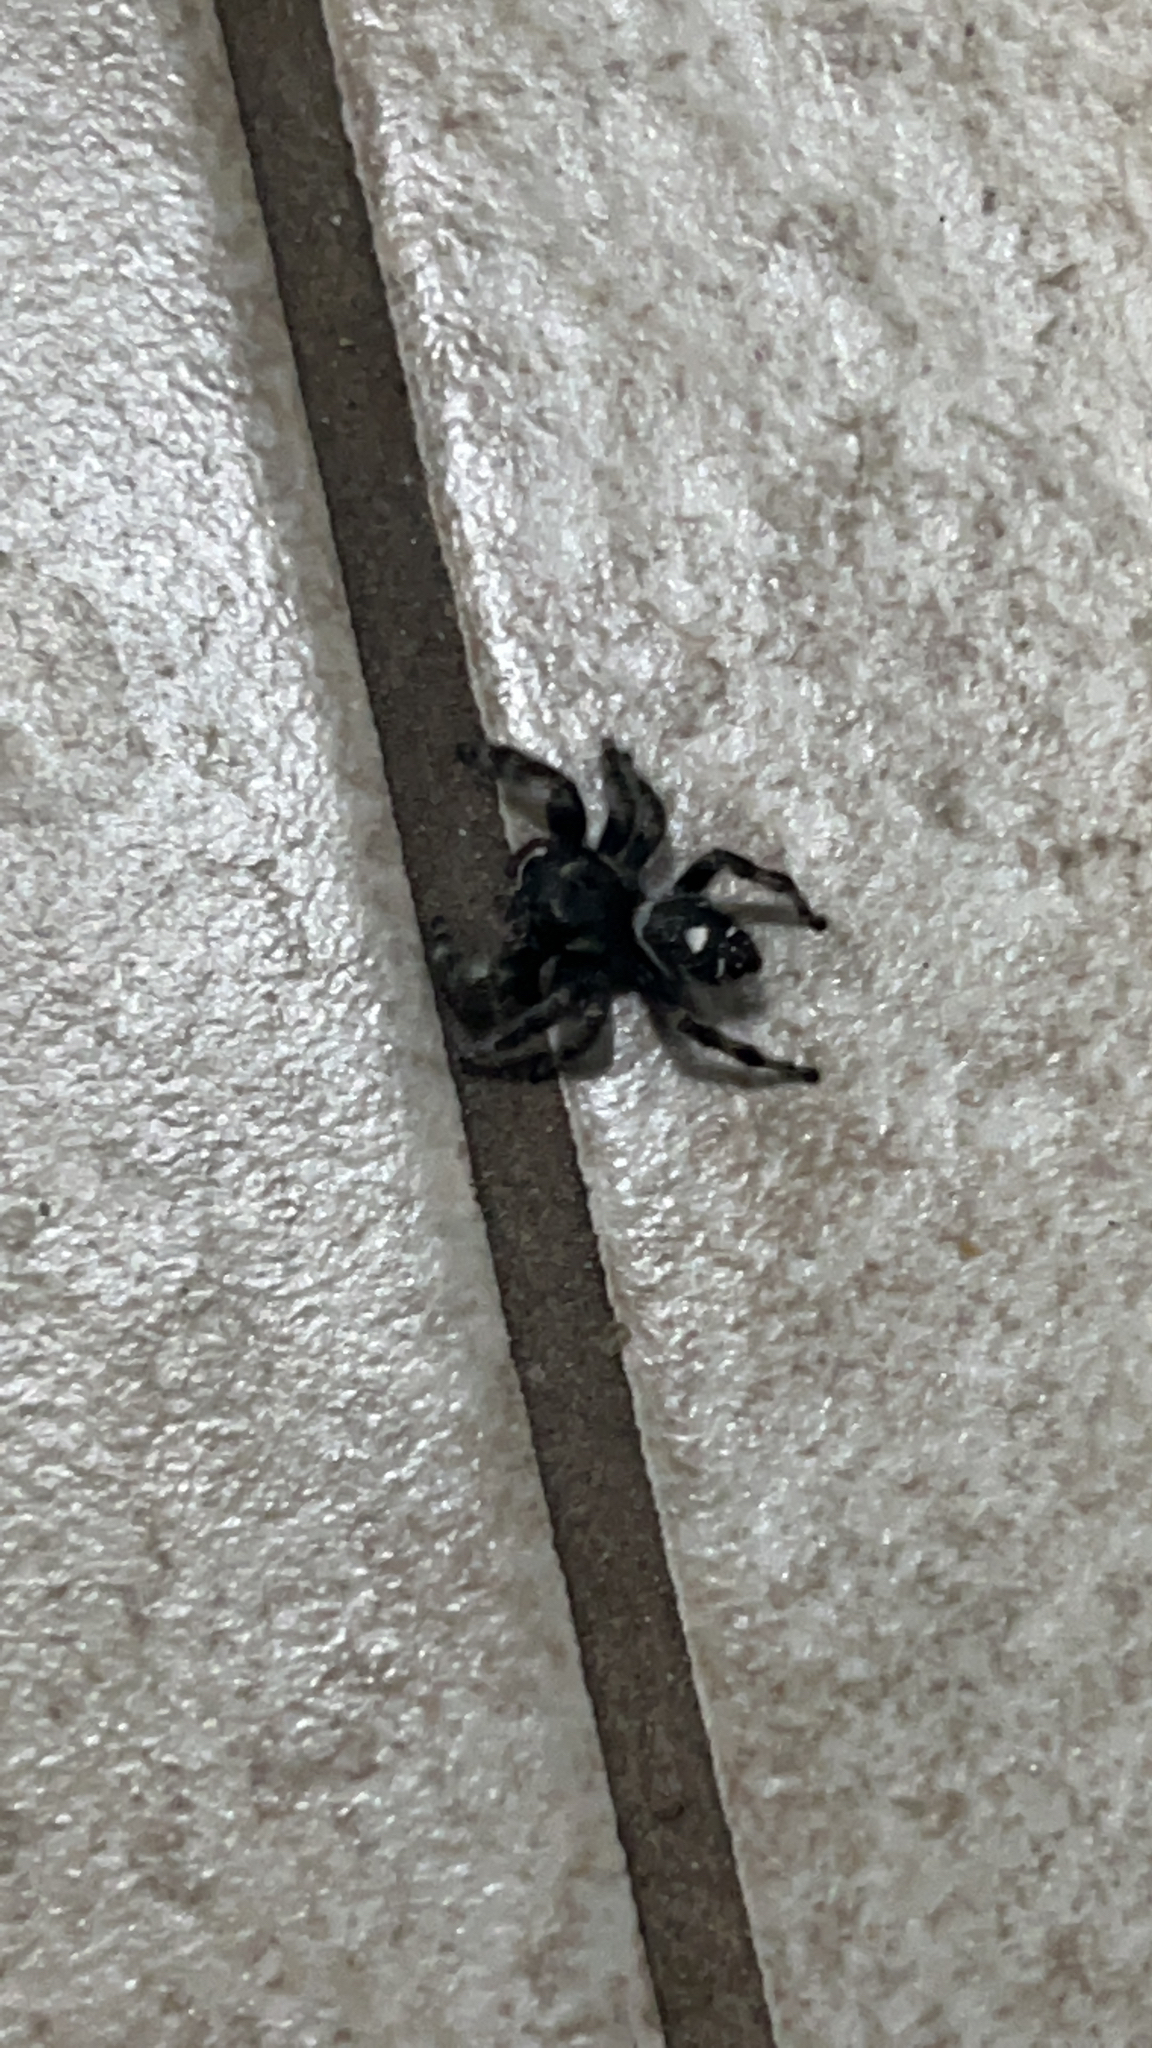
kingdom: Animalia
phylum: Arthropoda
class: Arachnida
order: Araneae
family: Salticidae
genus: Phidippus
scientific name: Phidippus audax
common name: Bold jumper
